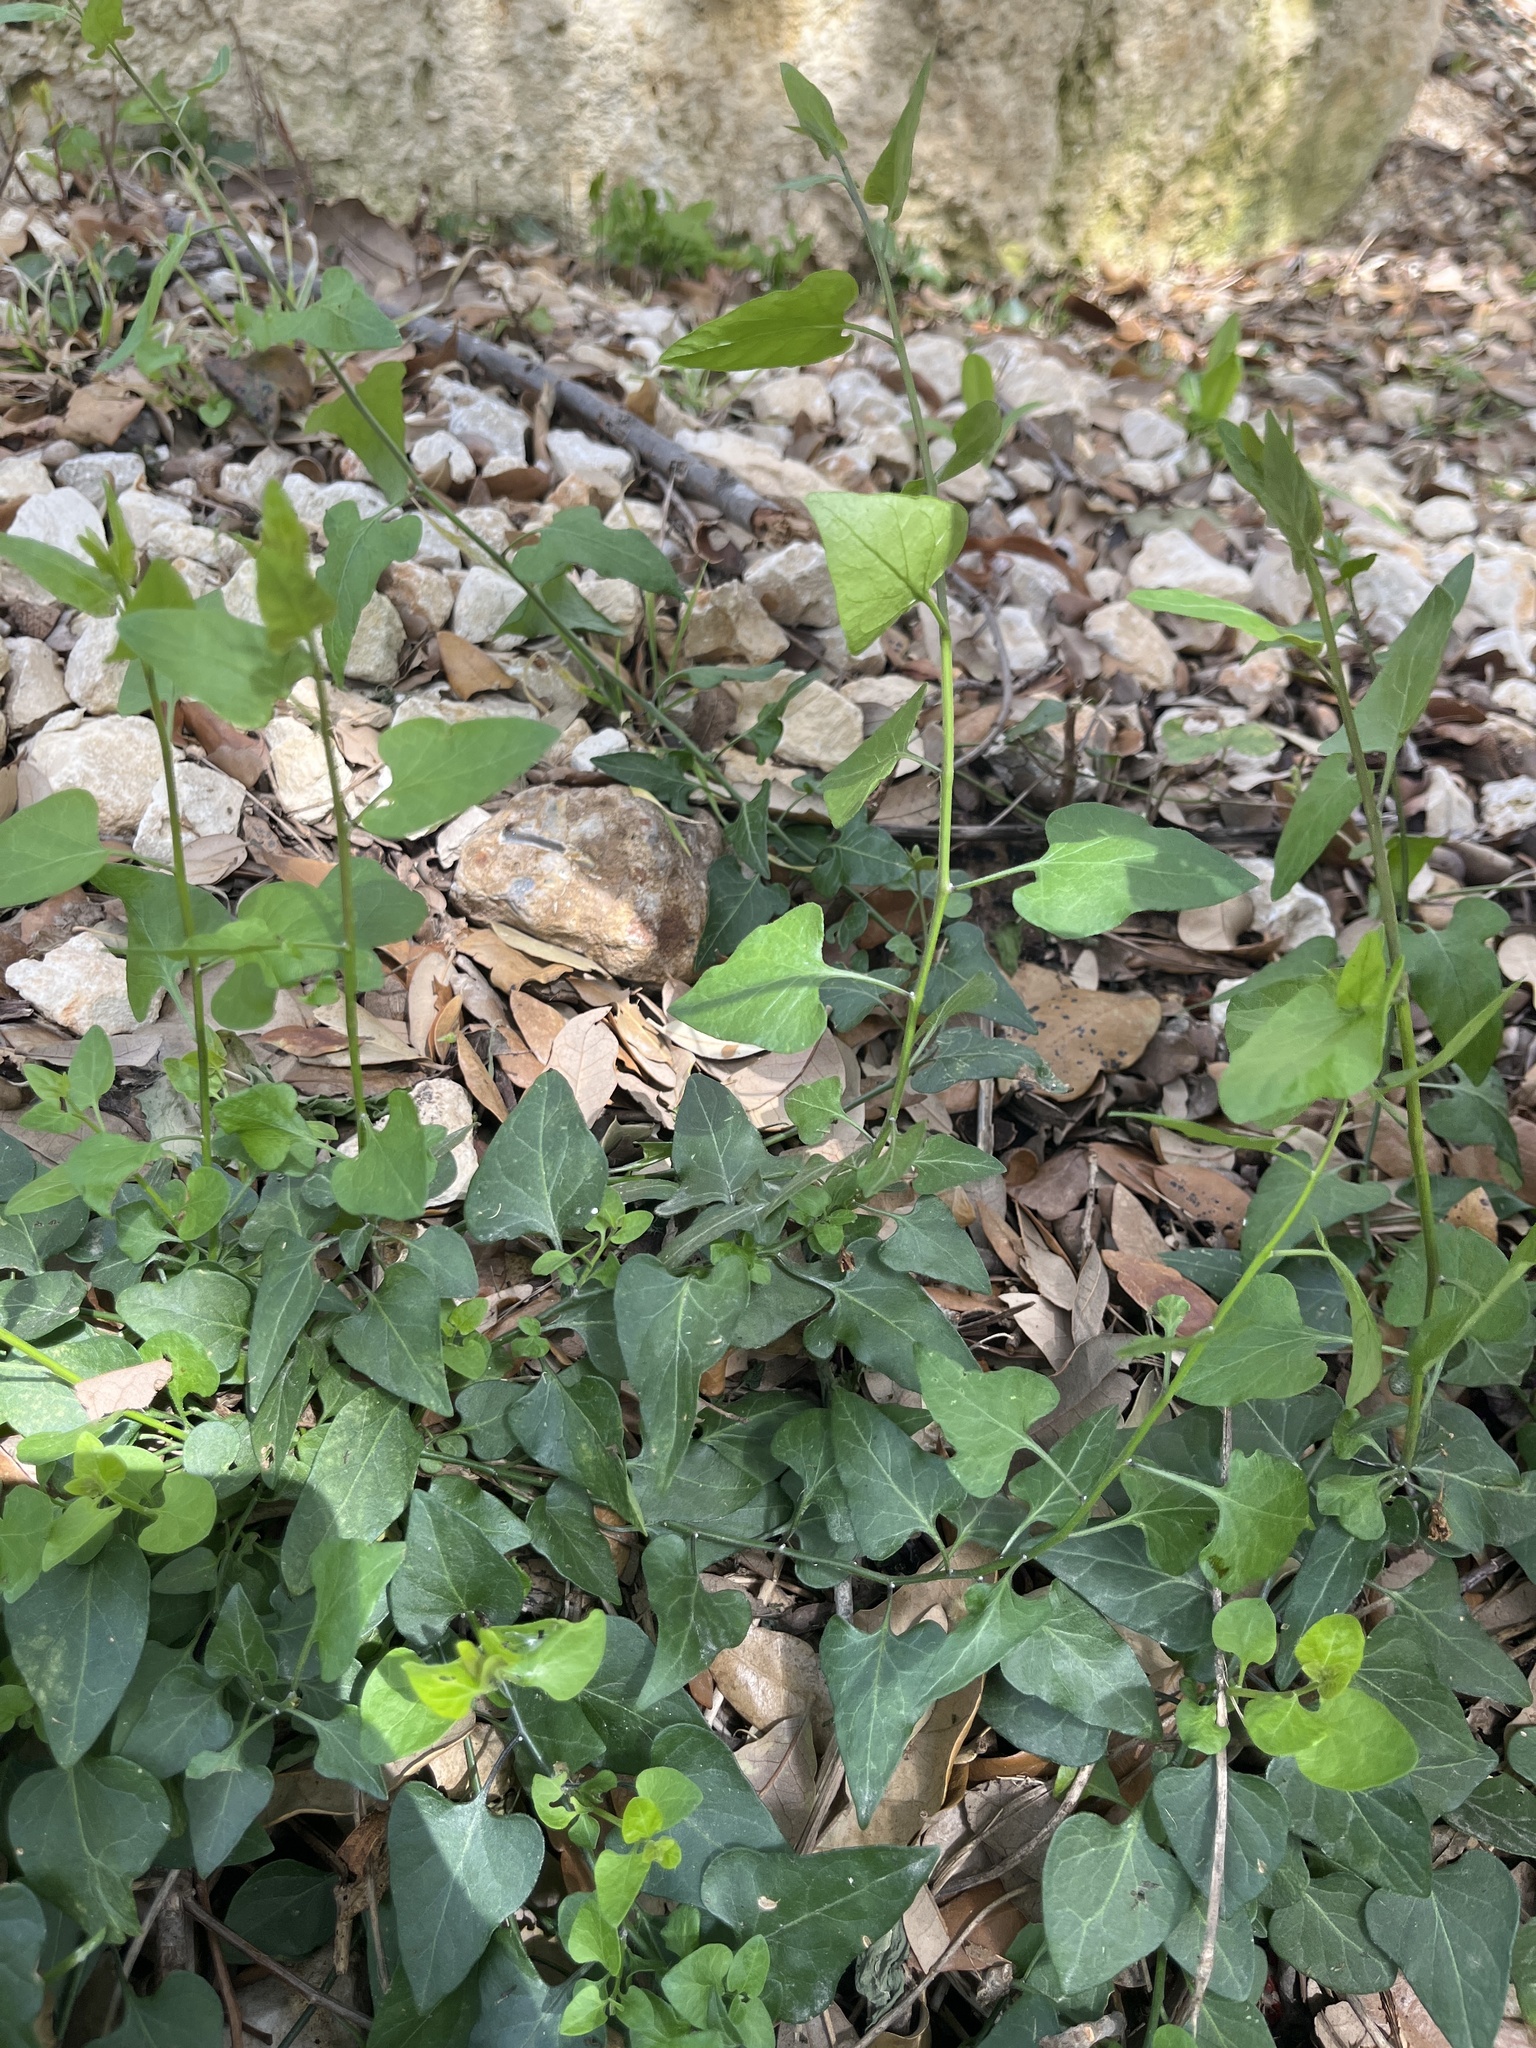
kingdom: Plantae
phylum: Tracheophyta
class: Magnoliopsida
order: Solanales
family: Solanaceae
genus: Solanum
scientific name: Solanum triquetrum
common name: Texas nightshade
